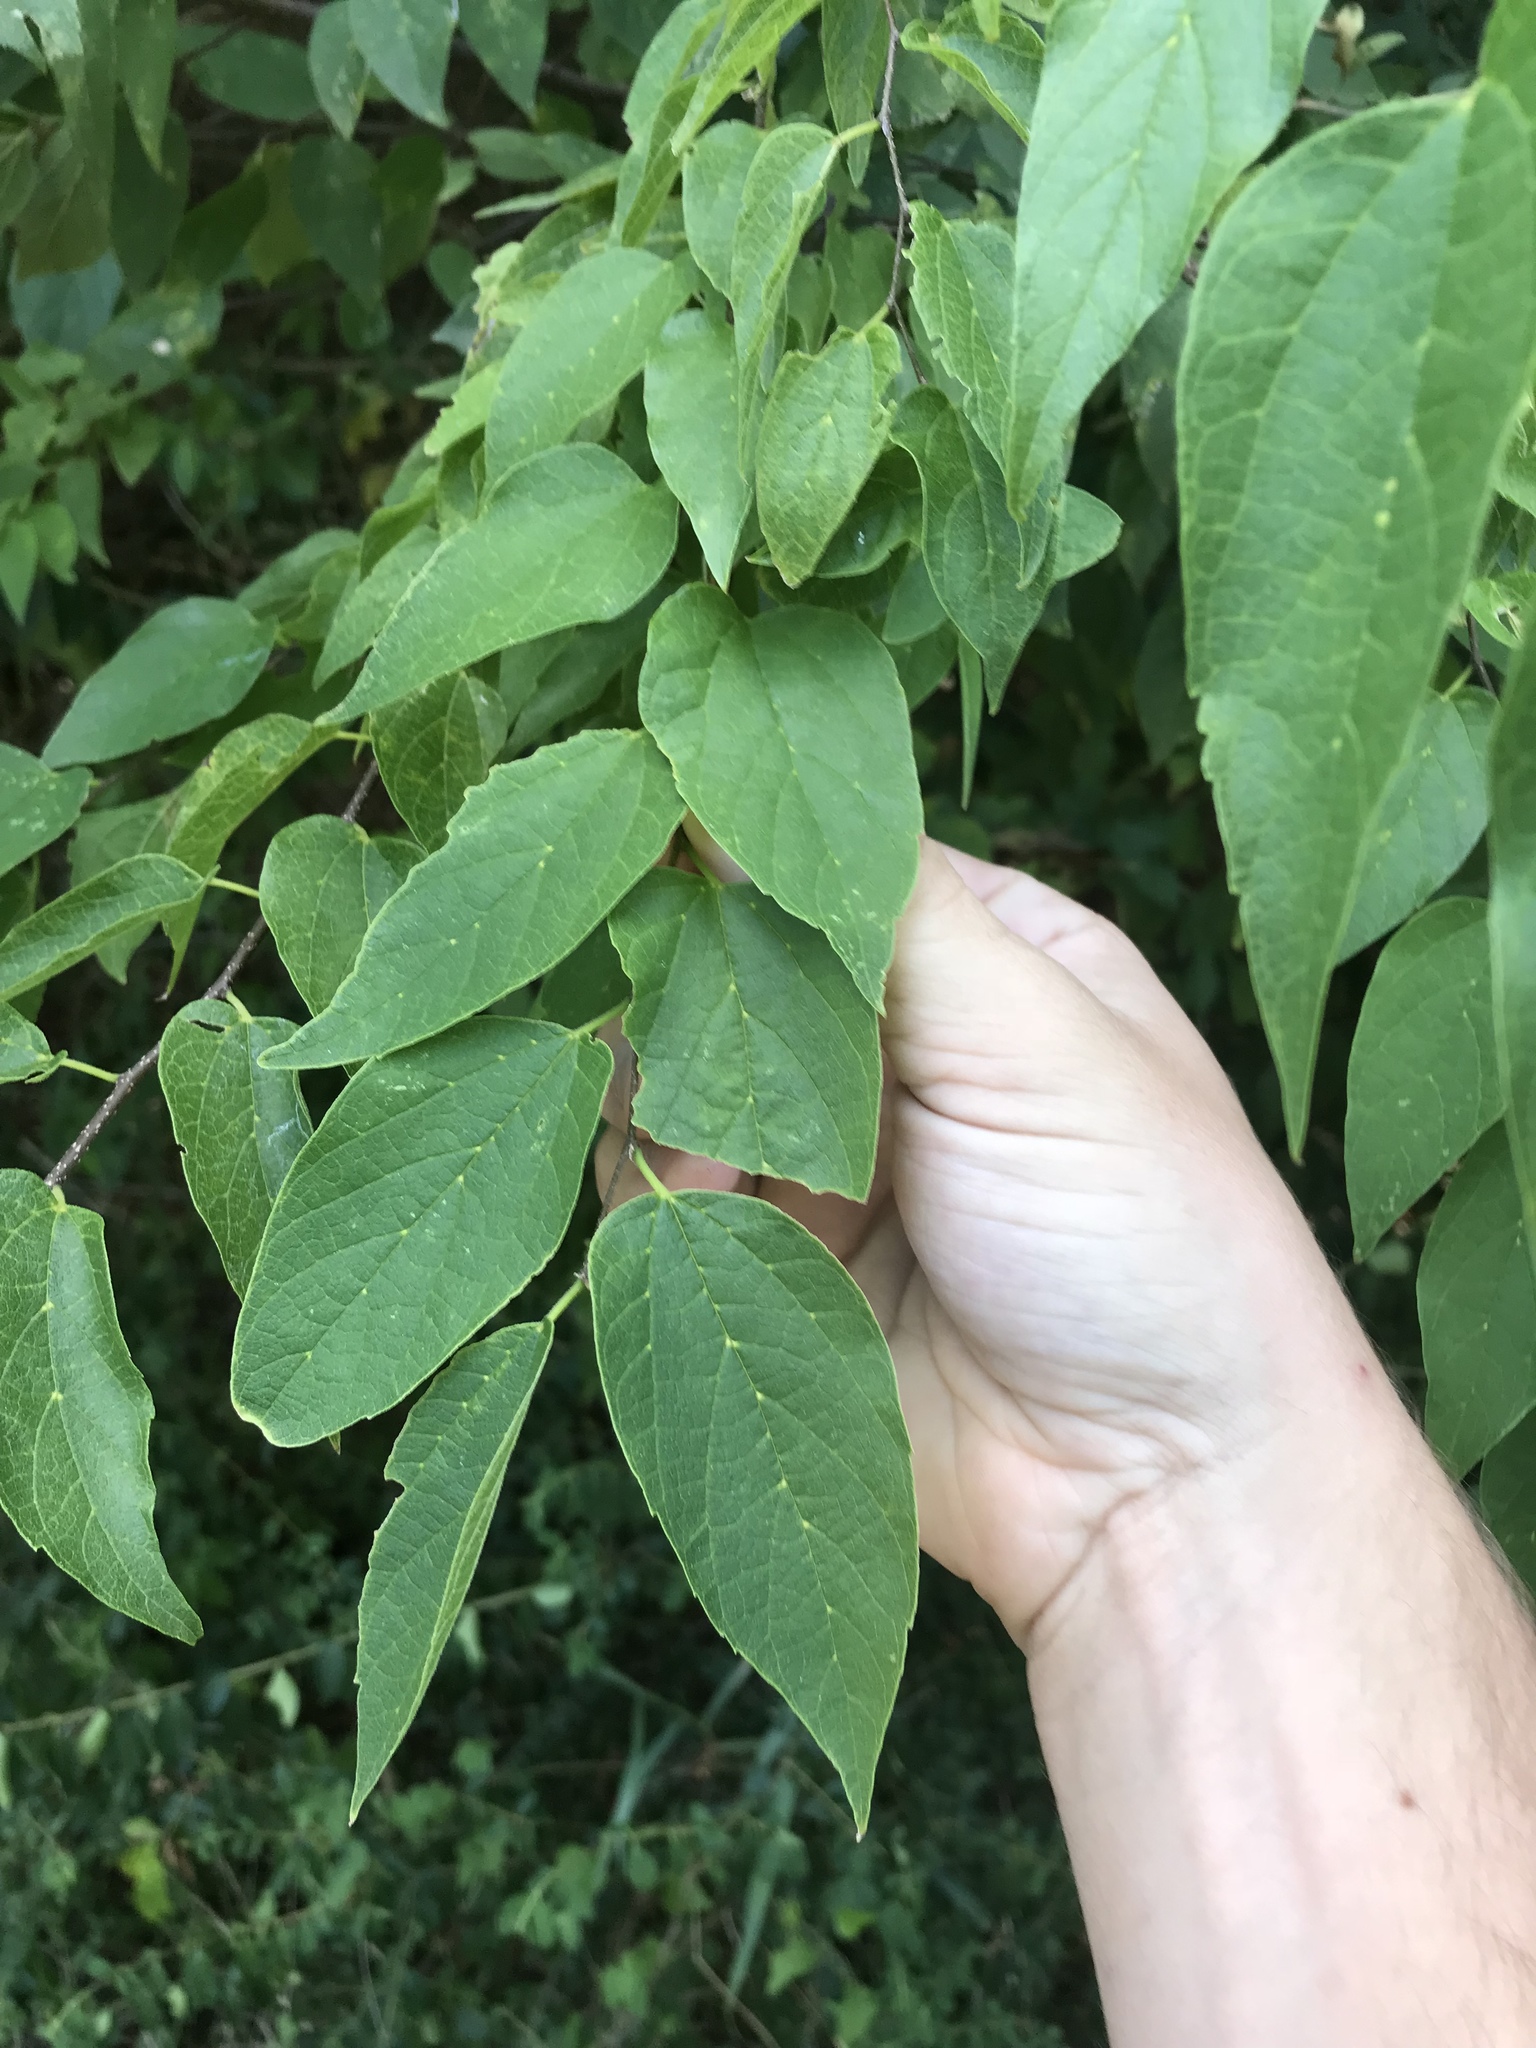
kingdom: Plantae
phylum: Tracheophyta
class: Magnoliopsida
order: Rosales
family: Cannabaceae
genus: Celtis
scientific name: Celtis laevigata
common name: Sugarberry
